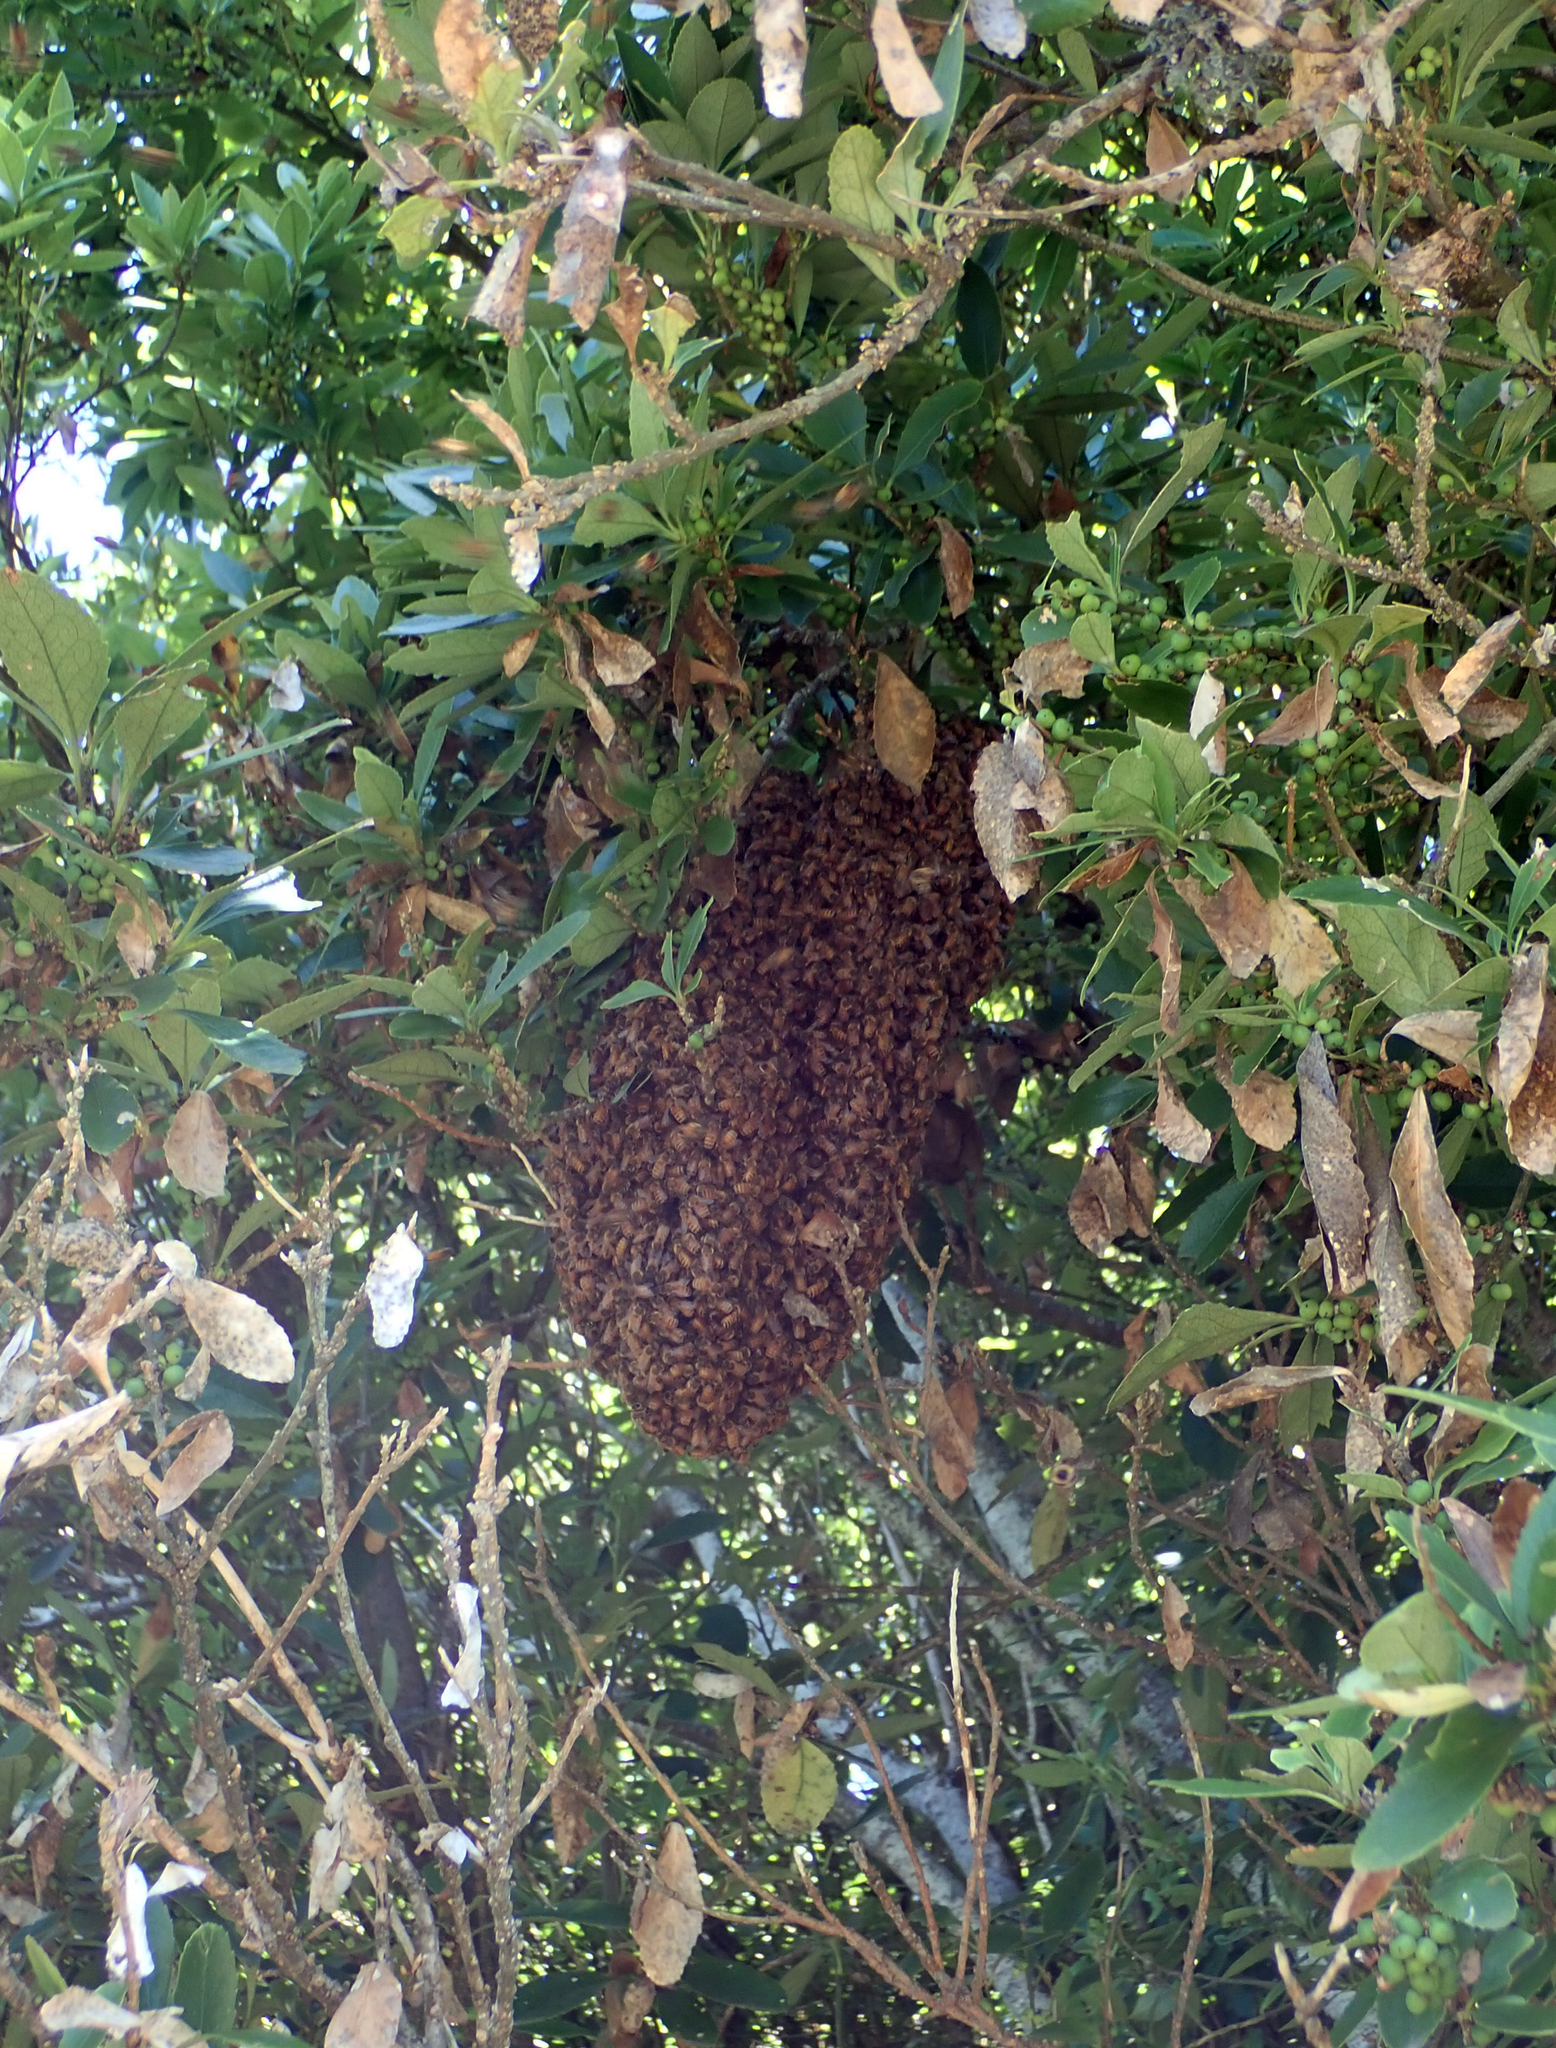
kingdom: Animalia
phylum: Arthropoda
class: Insecta
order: Hymenoptera
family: Apidae
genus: Apis
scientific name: Apis mellifera
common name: Honey bee
